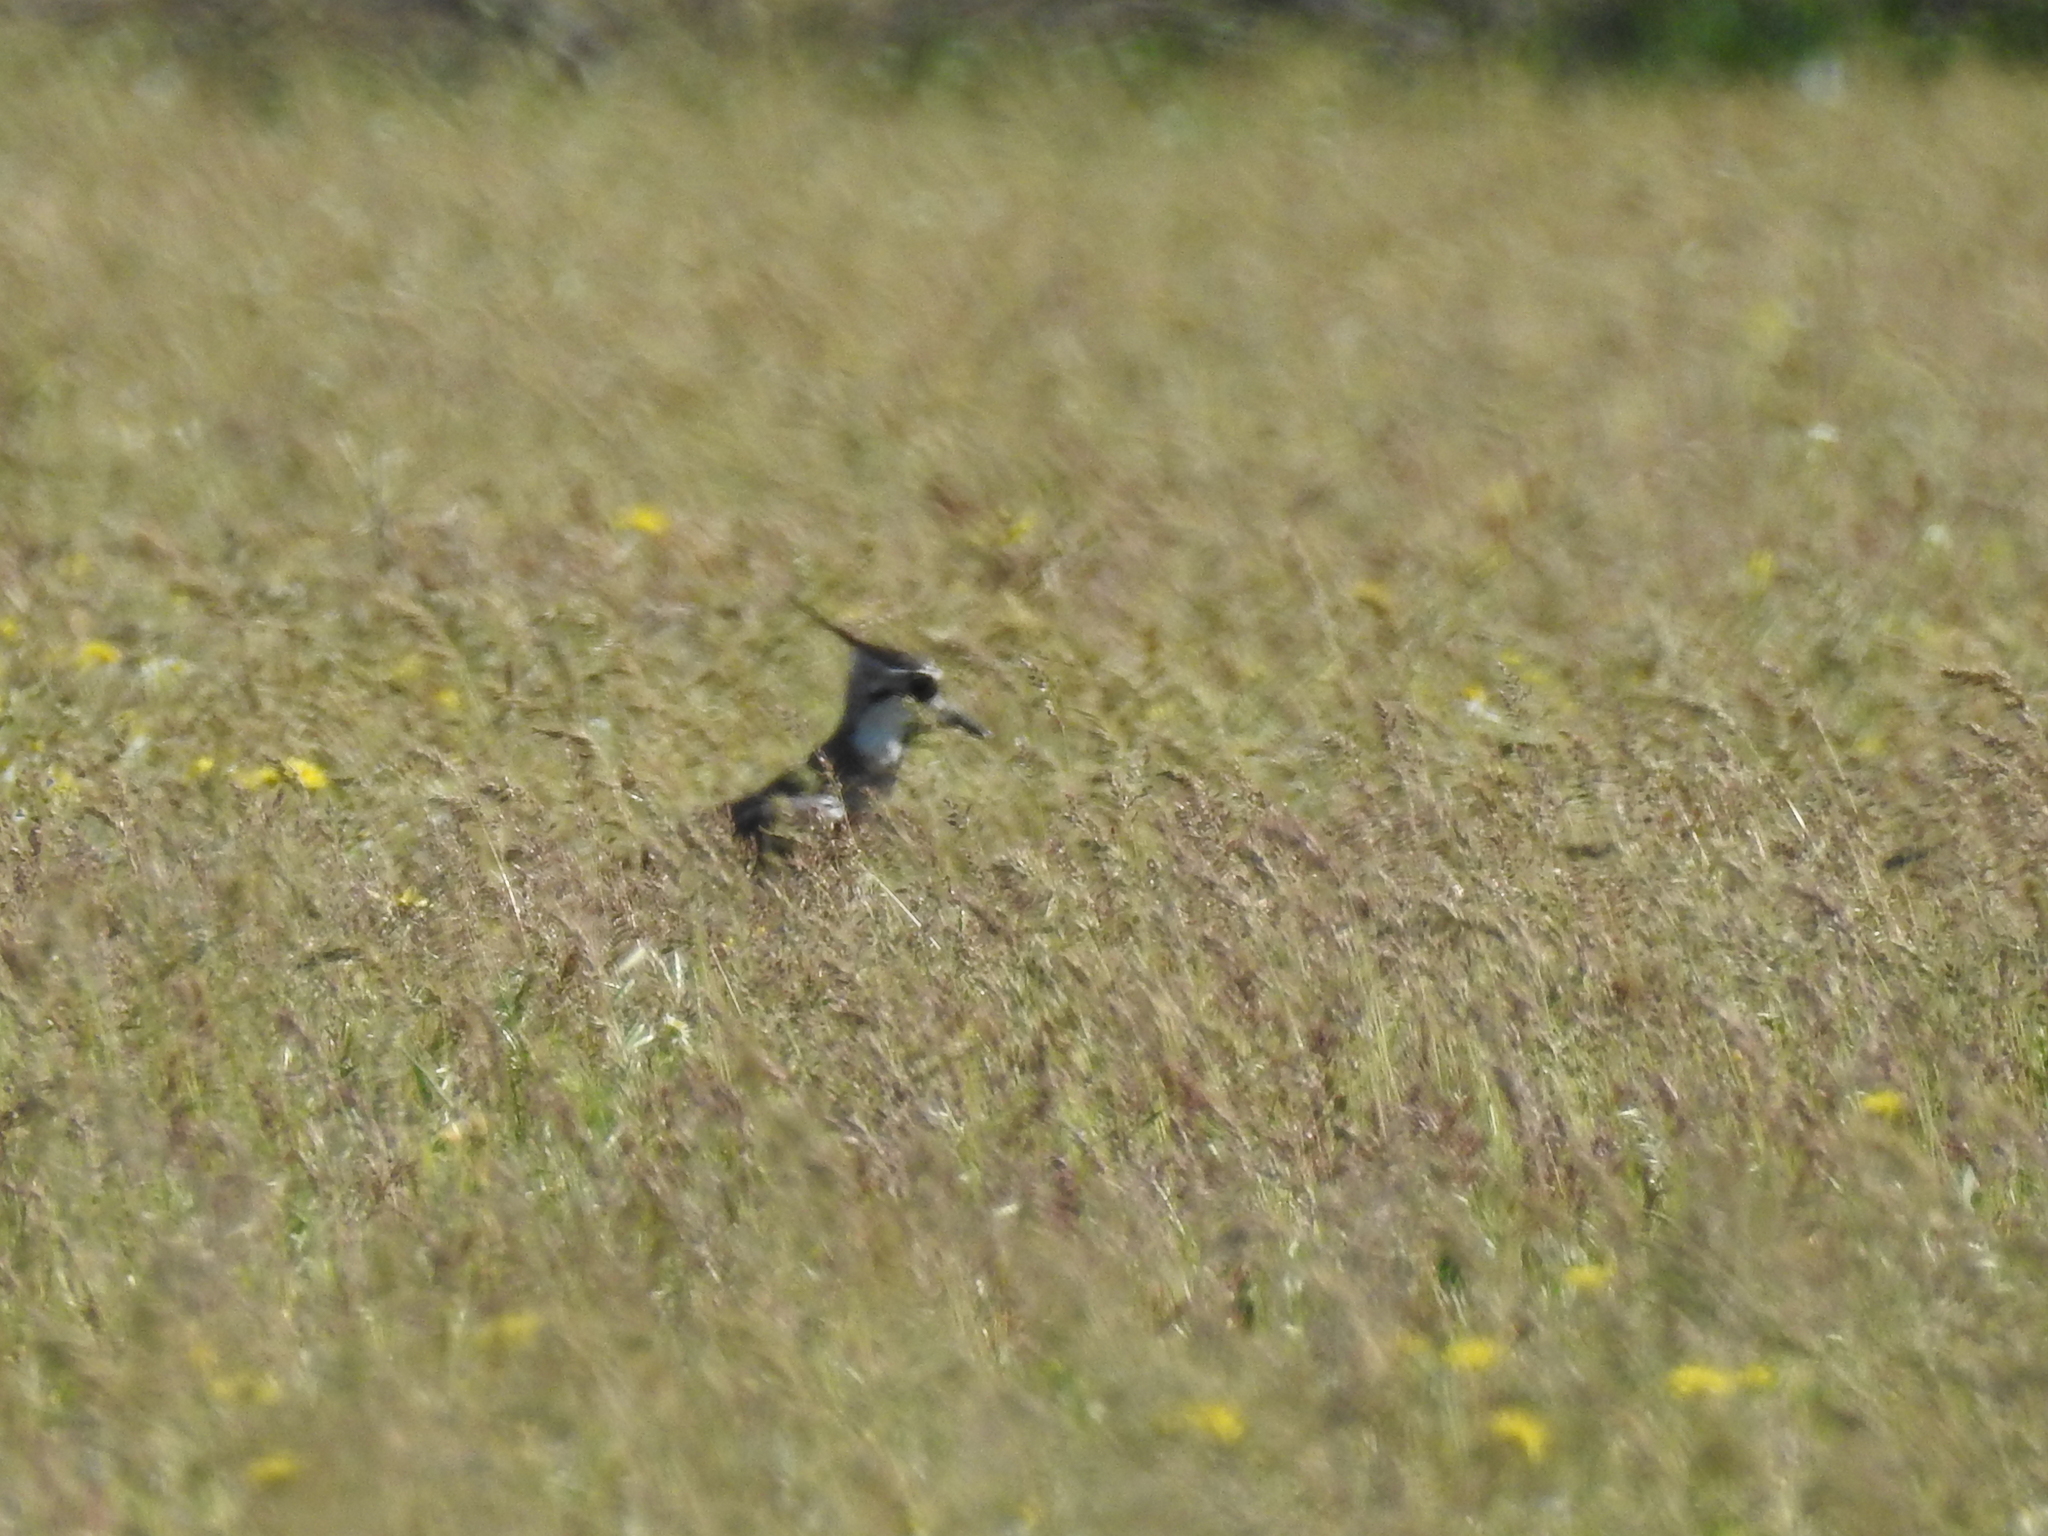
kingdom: Animalia
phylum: Chordata
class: Aves
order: Charadriiformes
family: Charadriidae
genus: Vanellus
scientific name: Vanellus vanellus
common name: Northern lapwing
